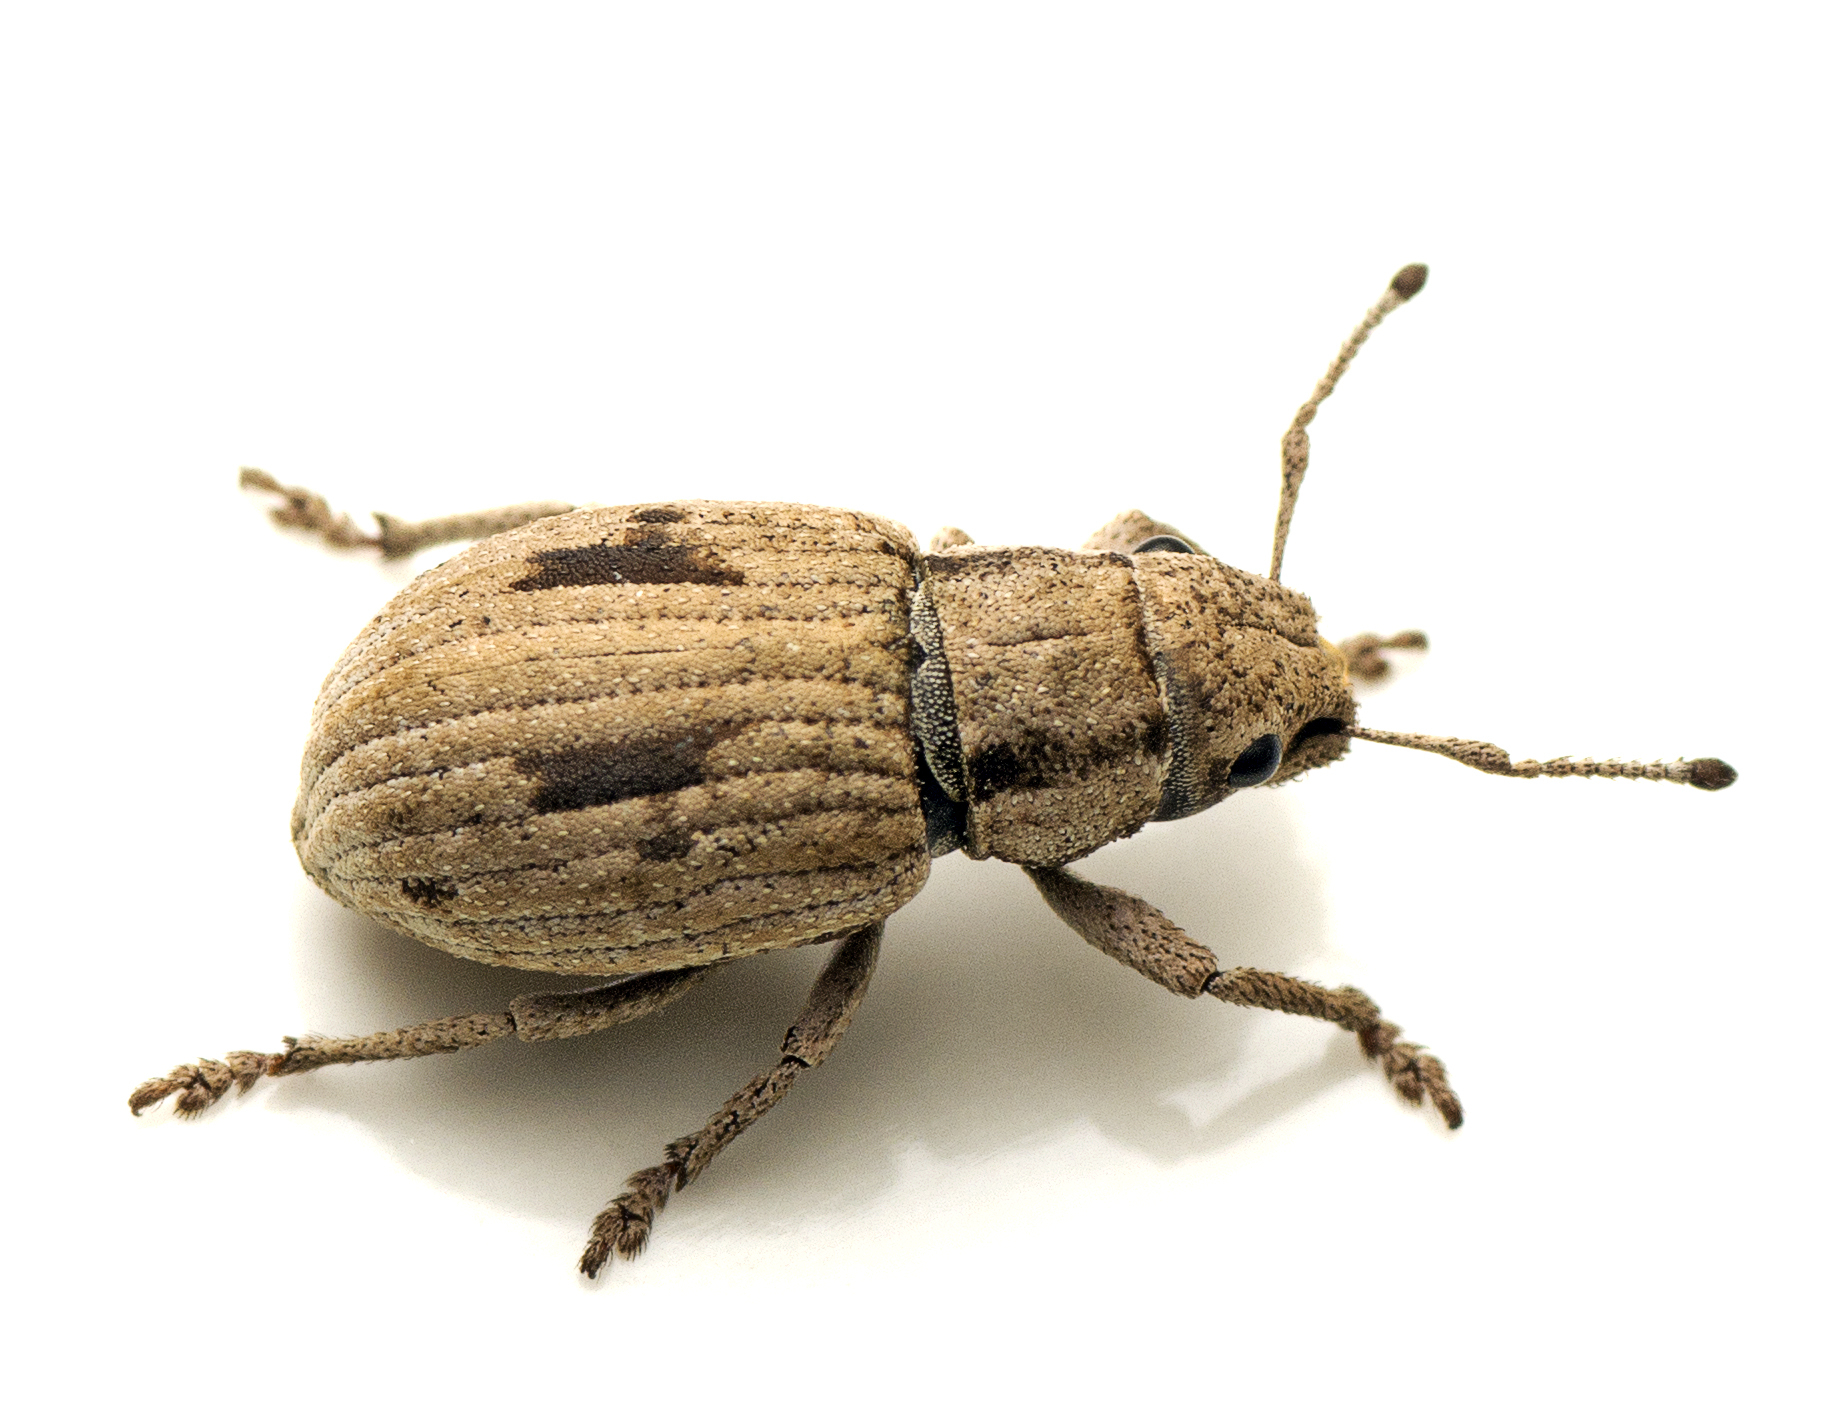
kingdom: Animalia
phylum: Arthropoda
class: Insecta
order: Coleoptera
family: Curculionidae
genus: Eurymetopus
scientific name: Eurymetopus birabeni
